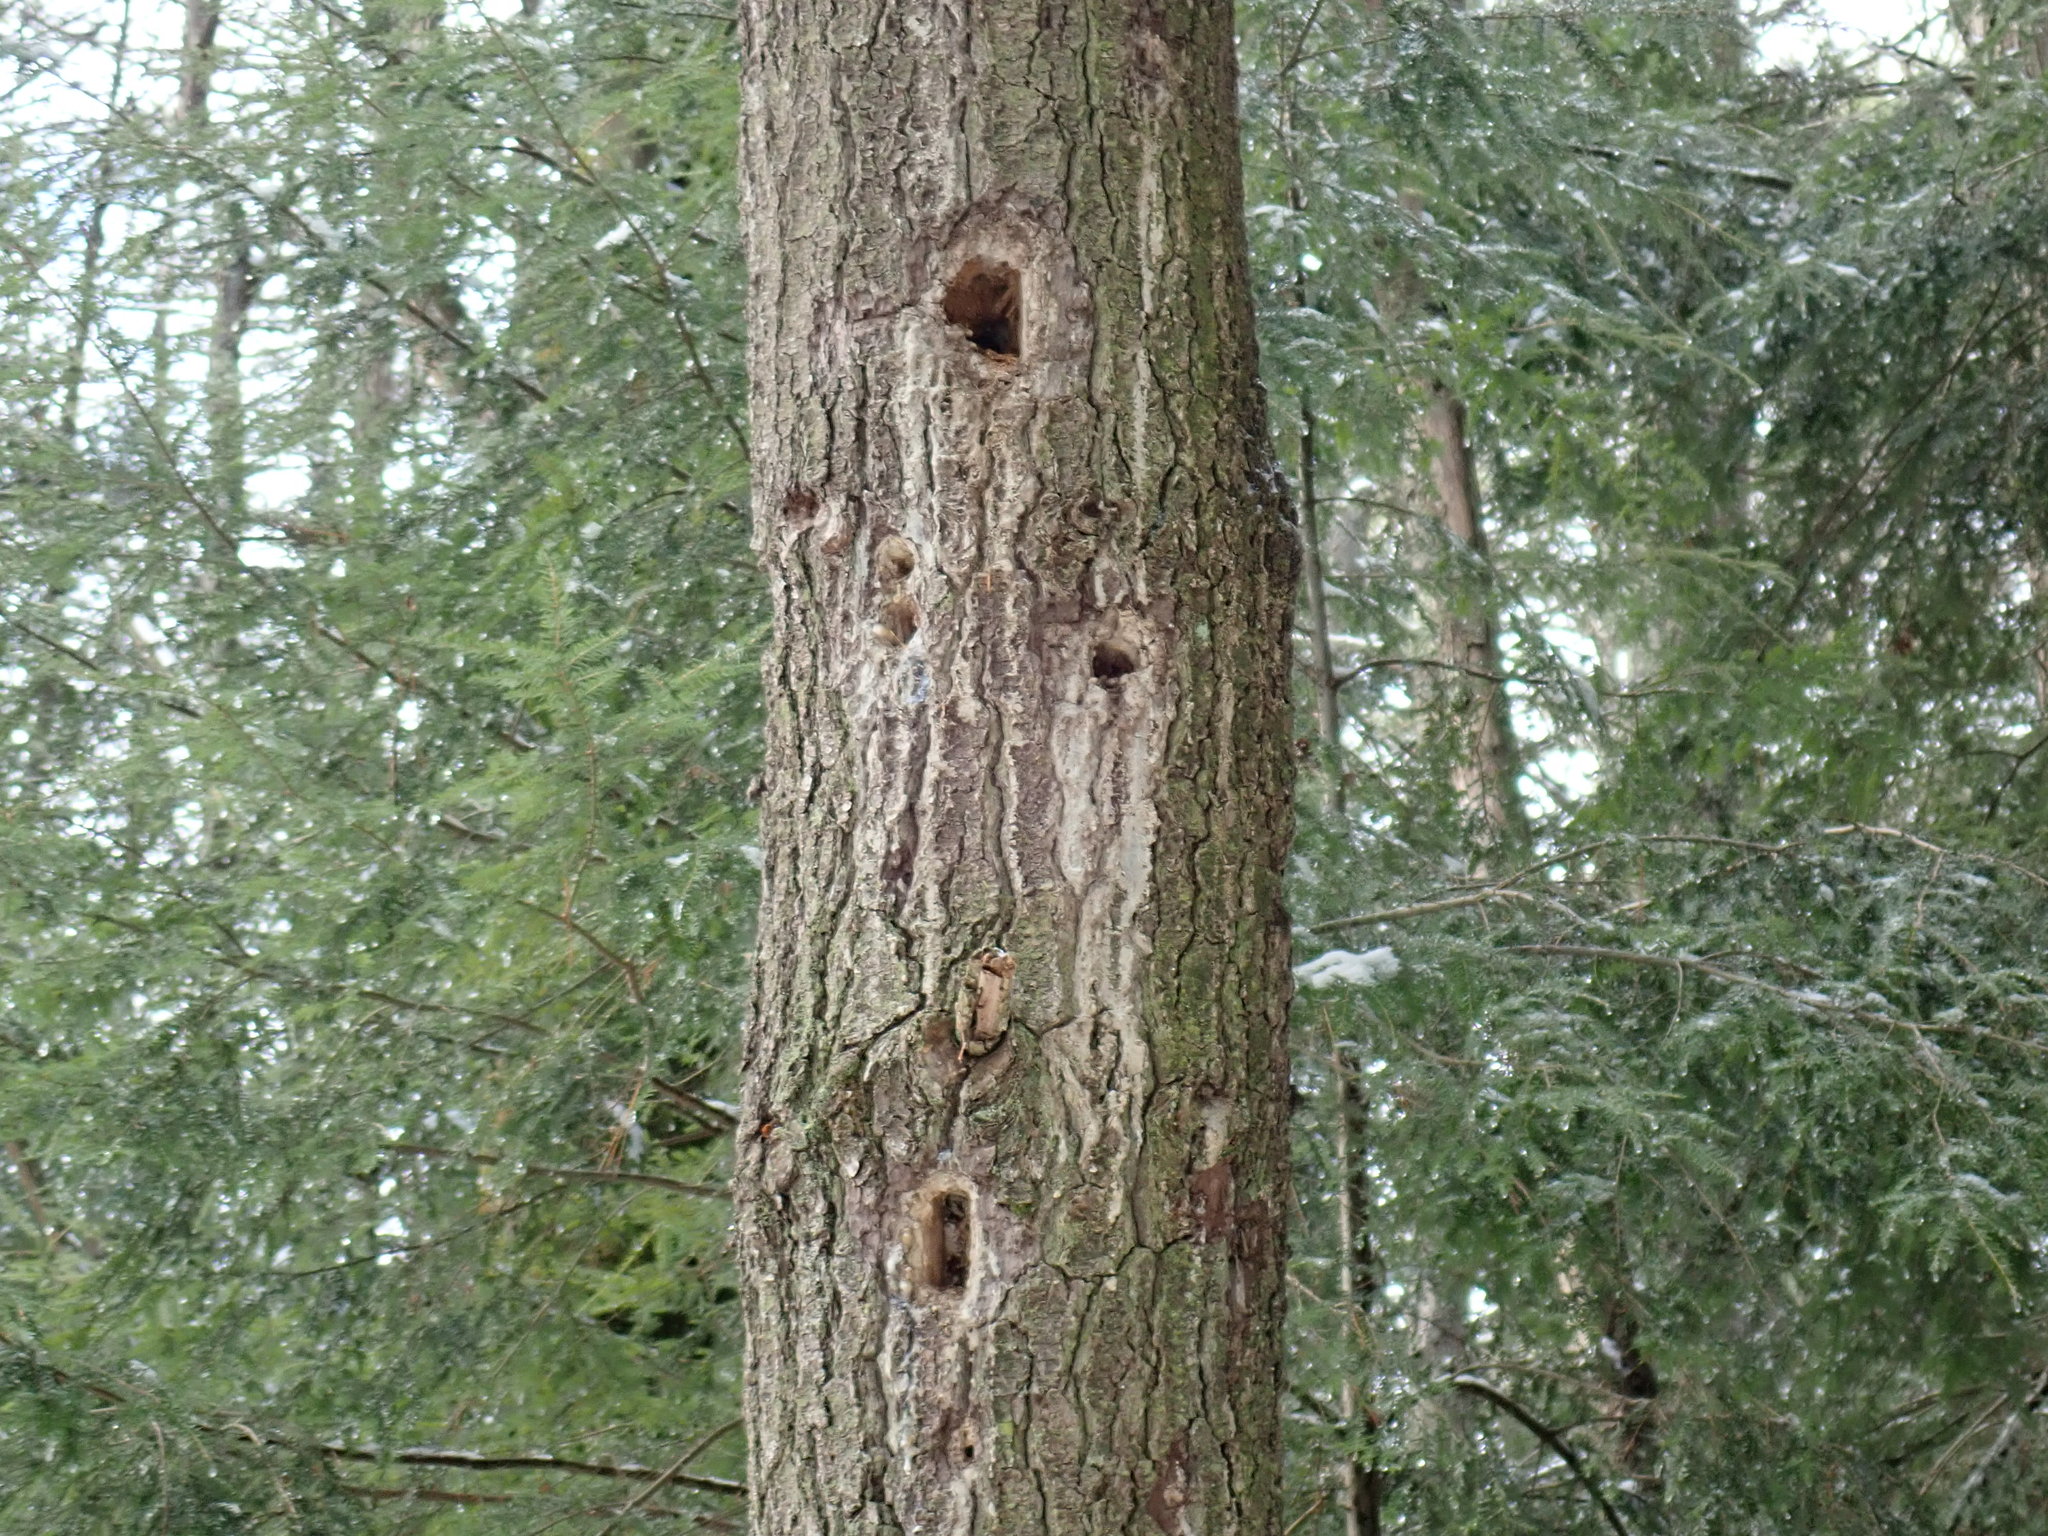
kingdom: Animalia
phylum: Chordata
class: Aves
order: Piciformes
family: Picidae
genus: Dryocopus
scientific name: Dryocopus pileatus
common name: Pileated woodpecker
